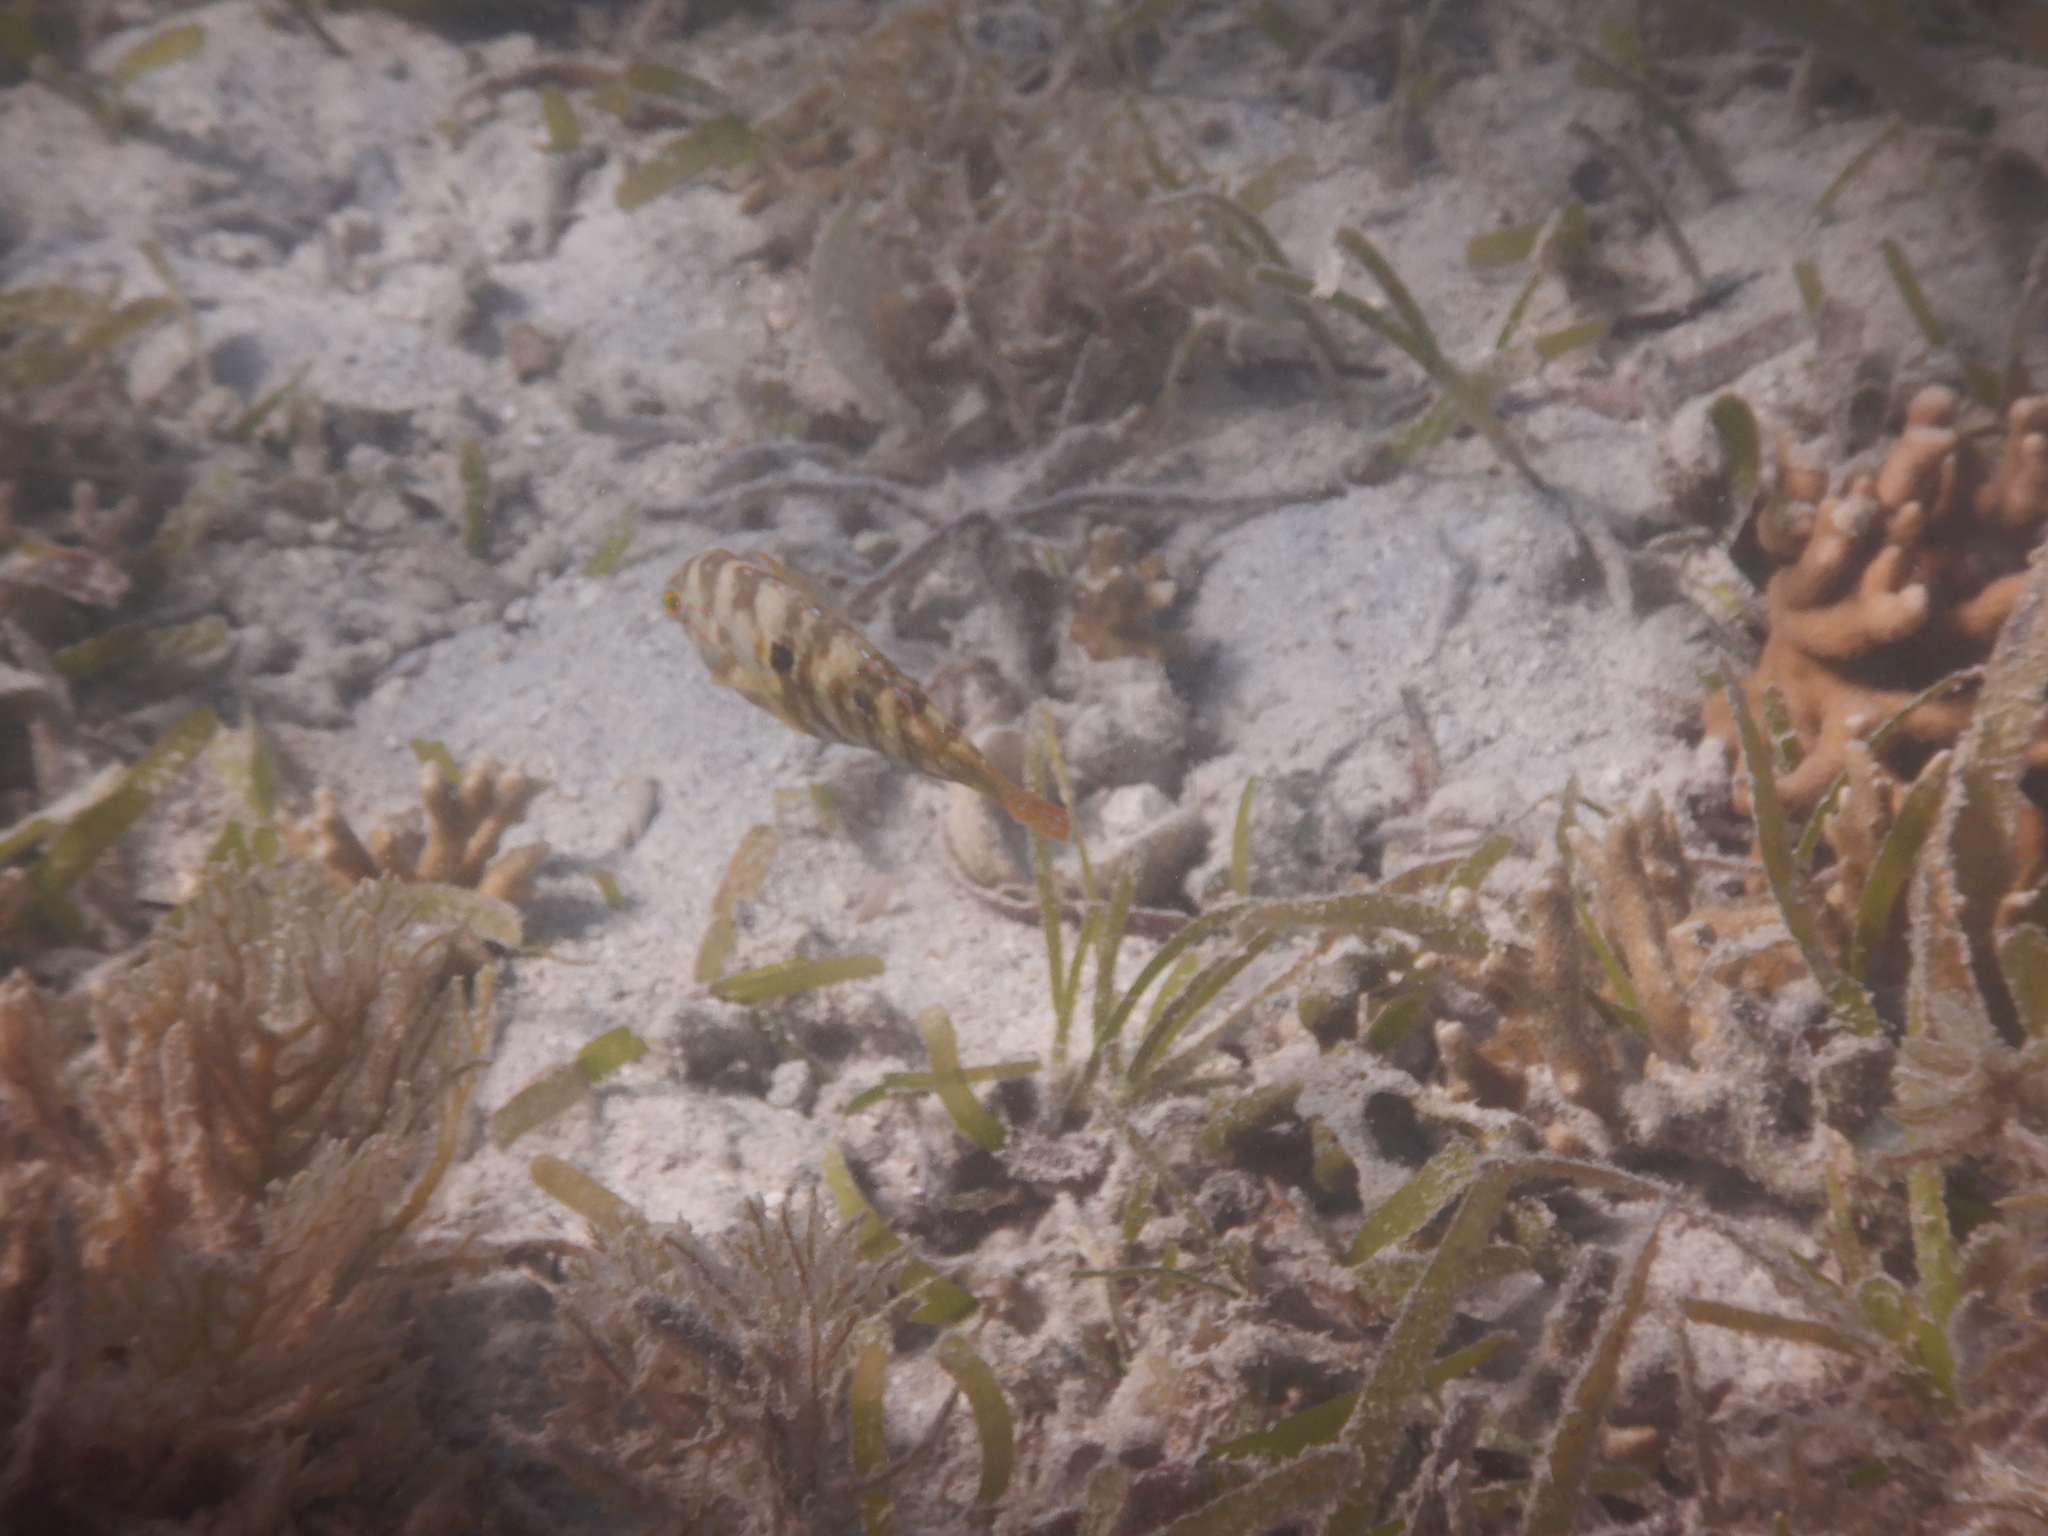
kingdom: Animalia
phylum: Chordata
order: Perciformes
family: Labridae
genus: Choerodon
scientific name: Choerodon graphicus
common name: Graphic tuskfish
